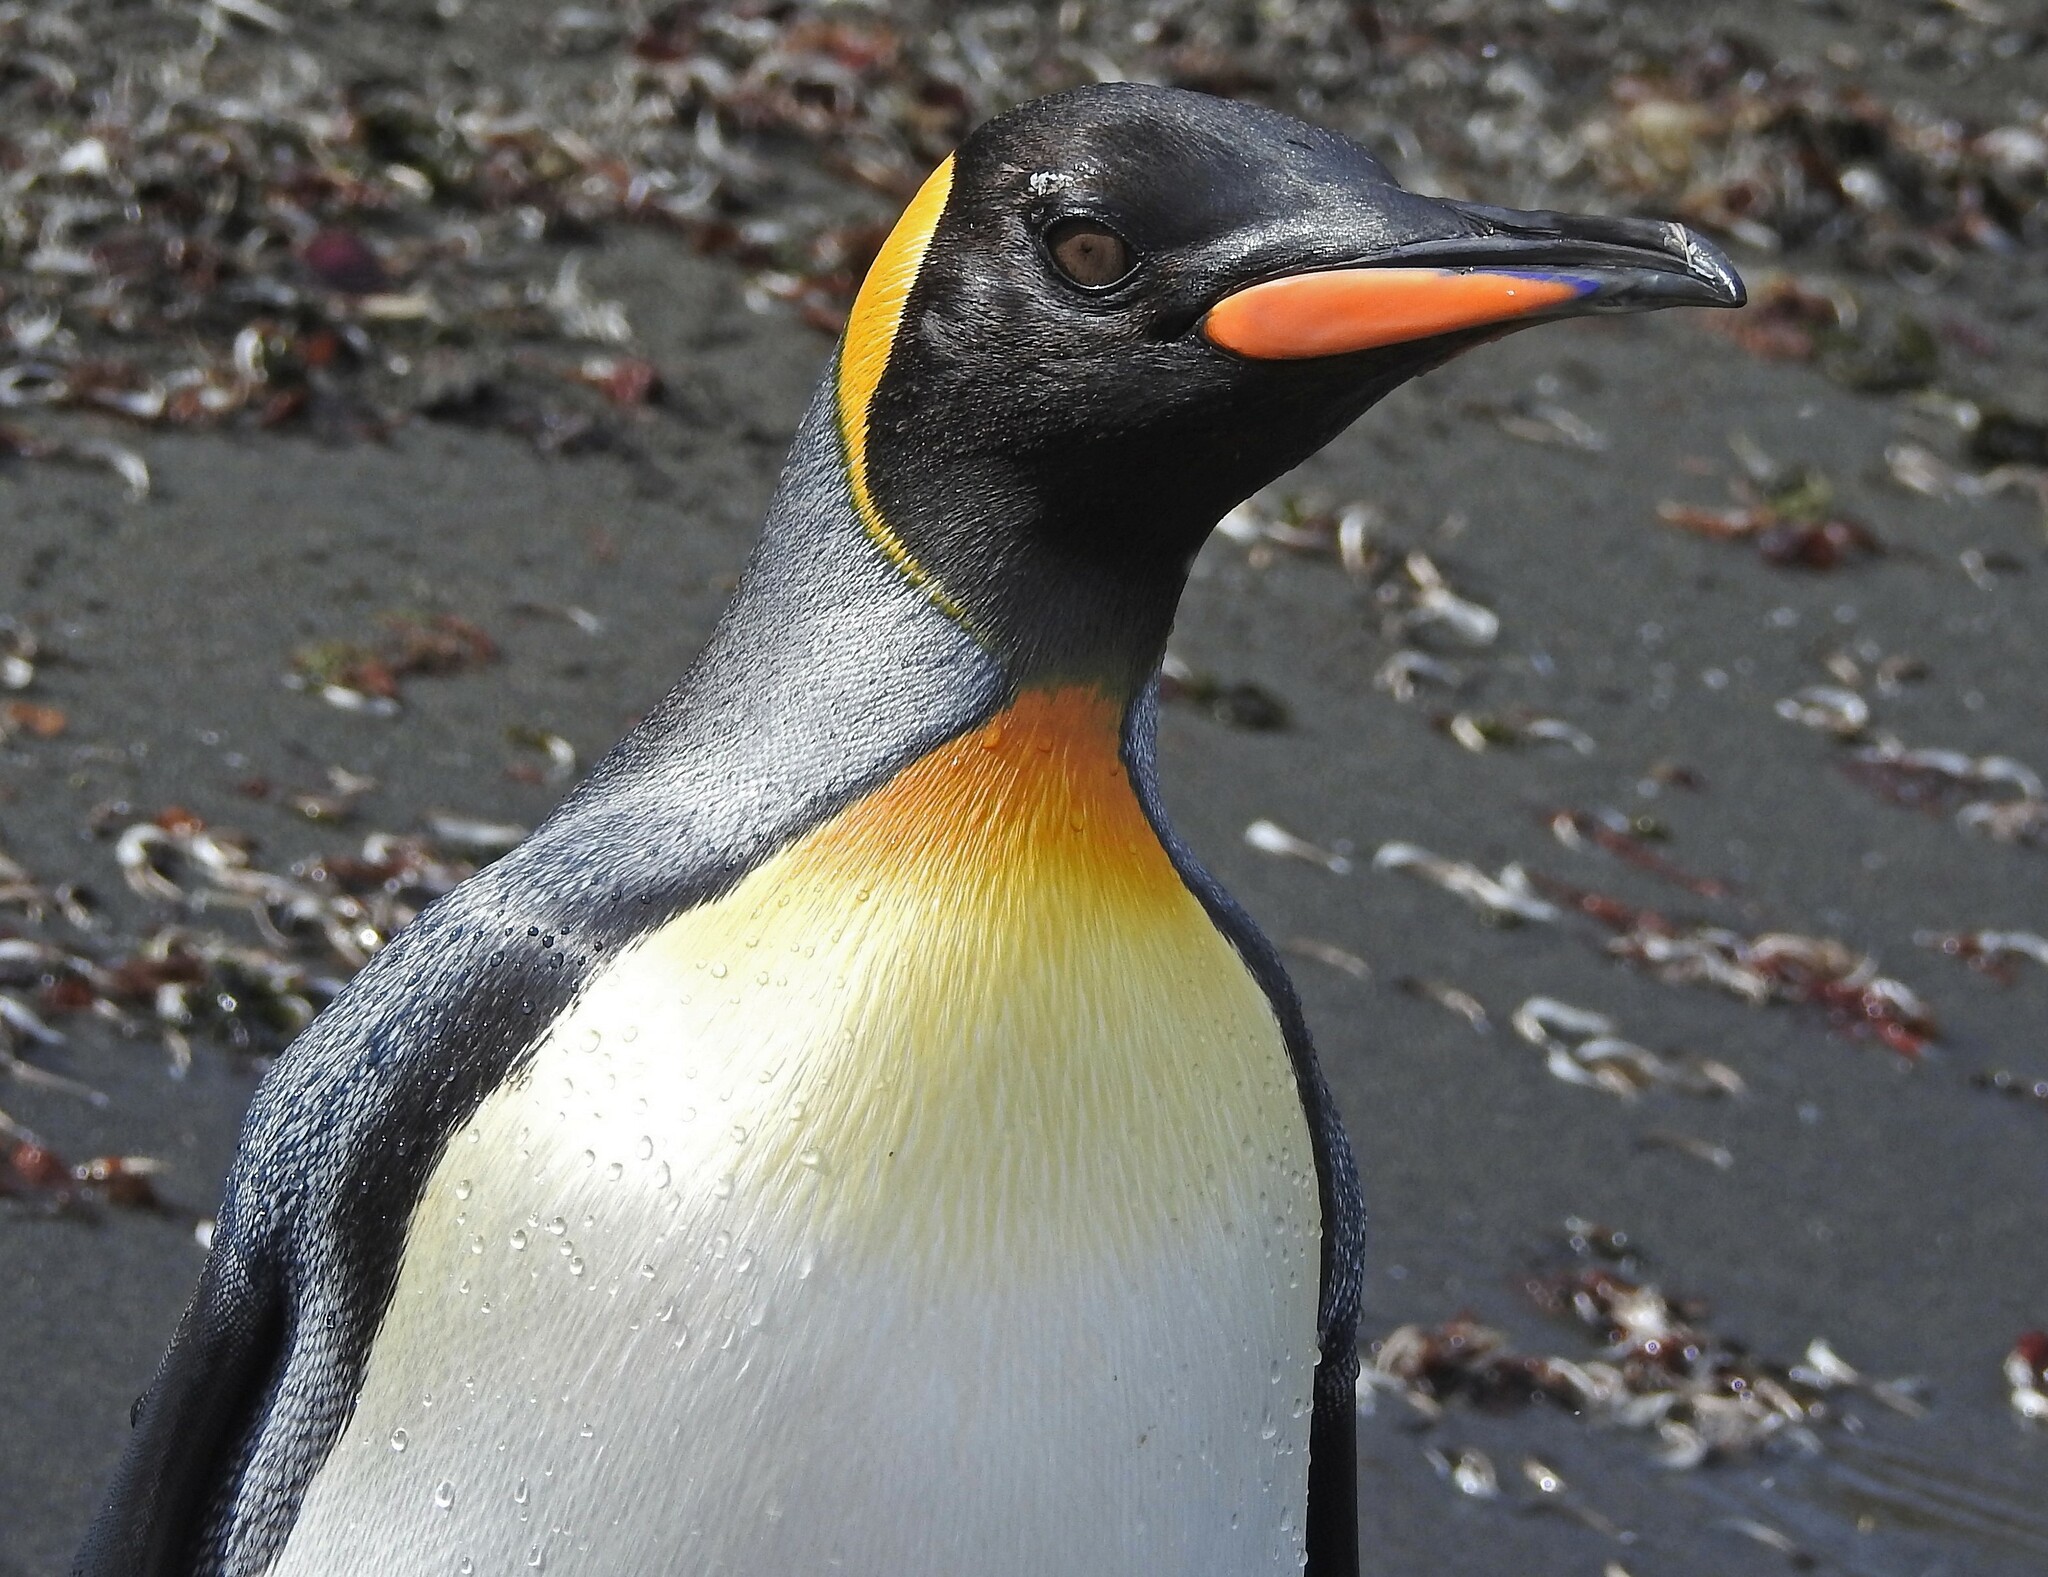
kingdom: Animalia
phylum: Chordata
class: Aves
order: Sphenisciformes
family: Spheniscidae
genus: Aptenodytes
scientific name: Aptenodytes patagonicus
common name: King penguin
